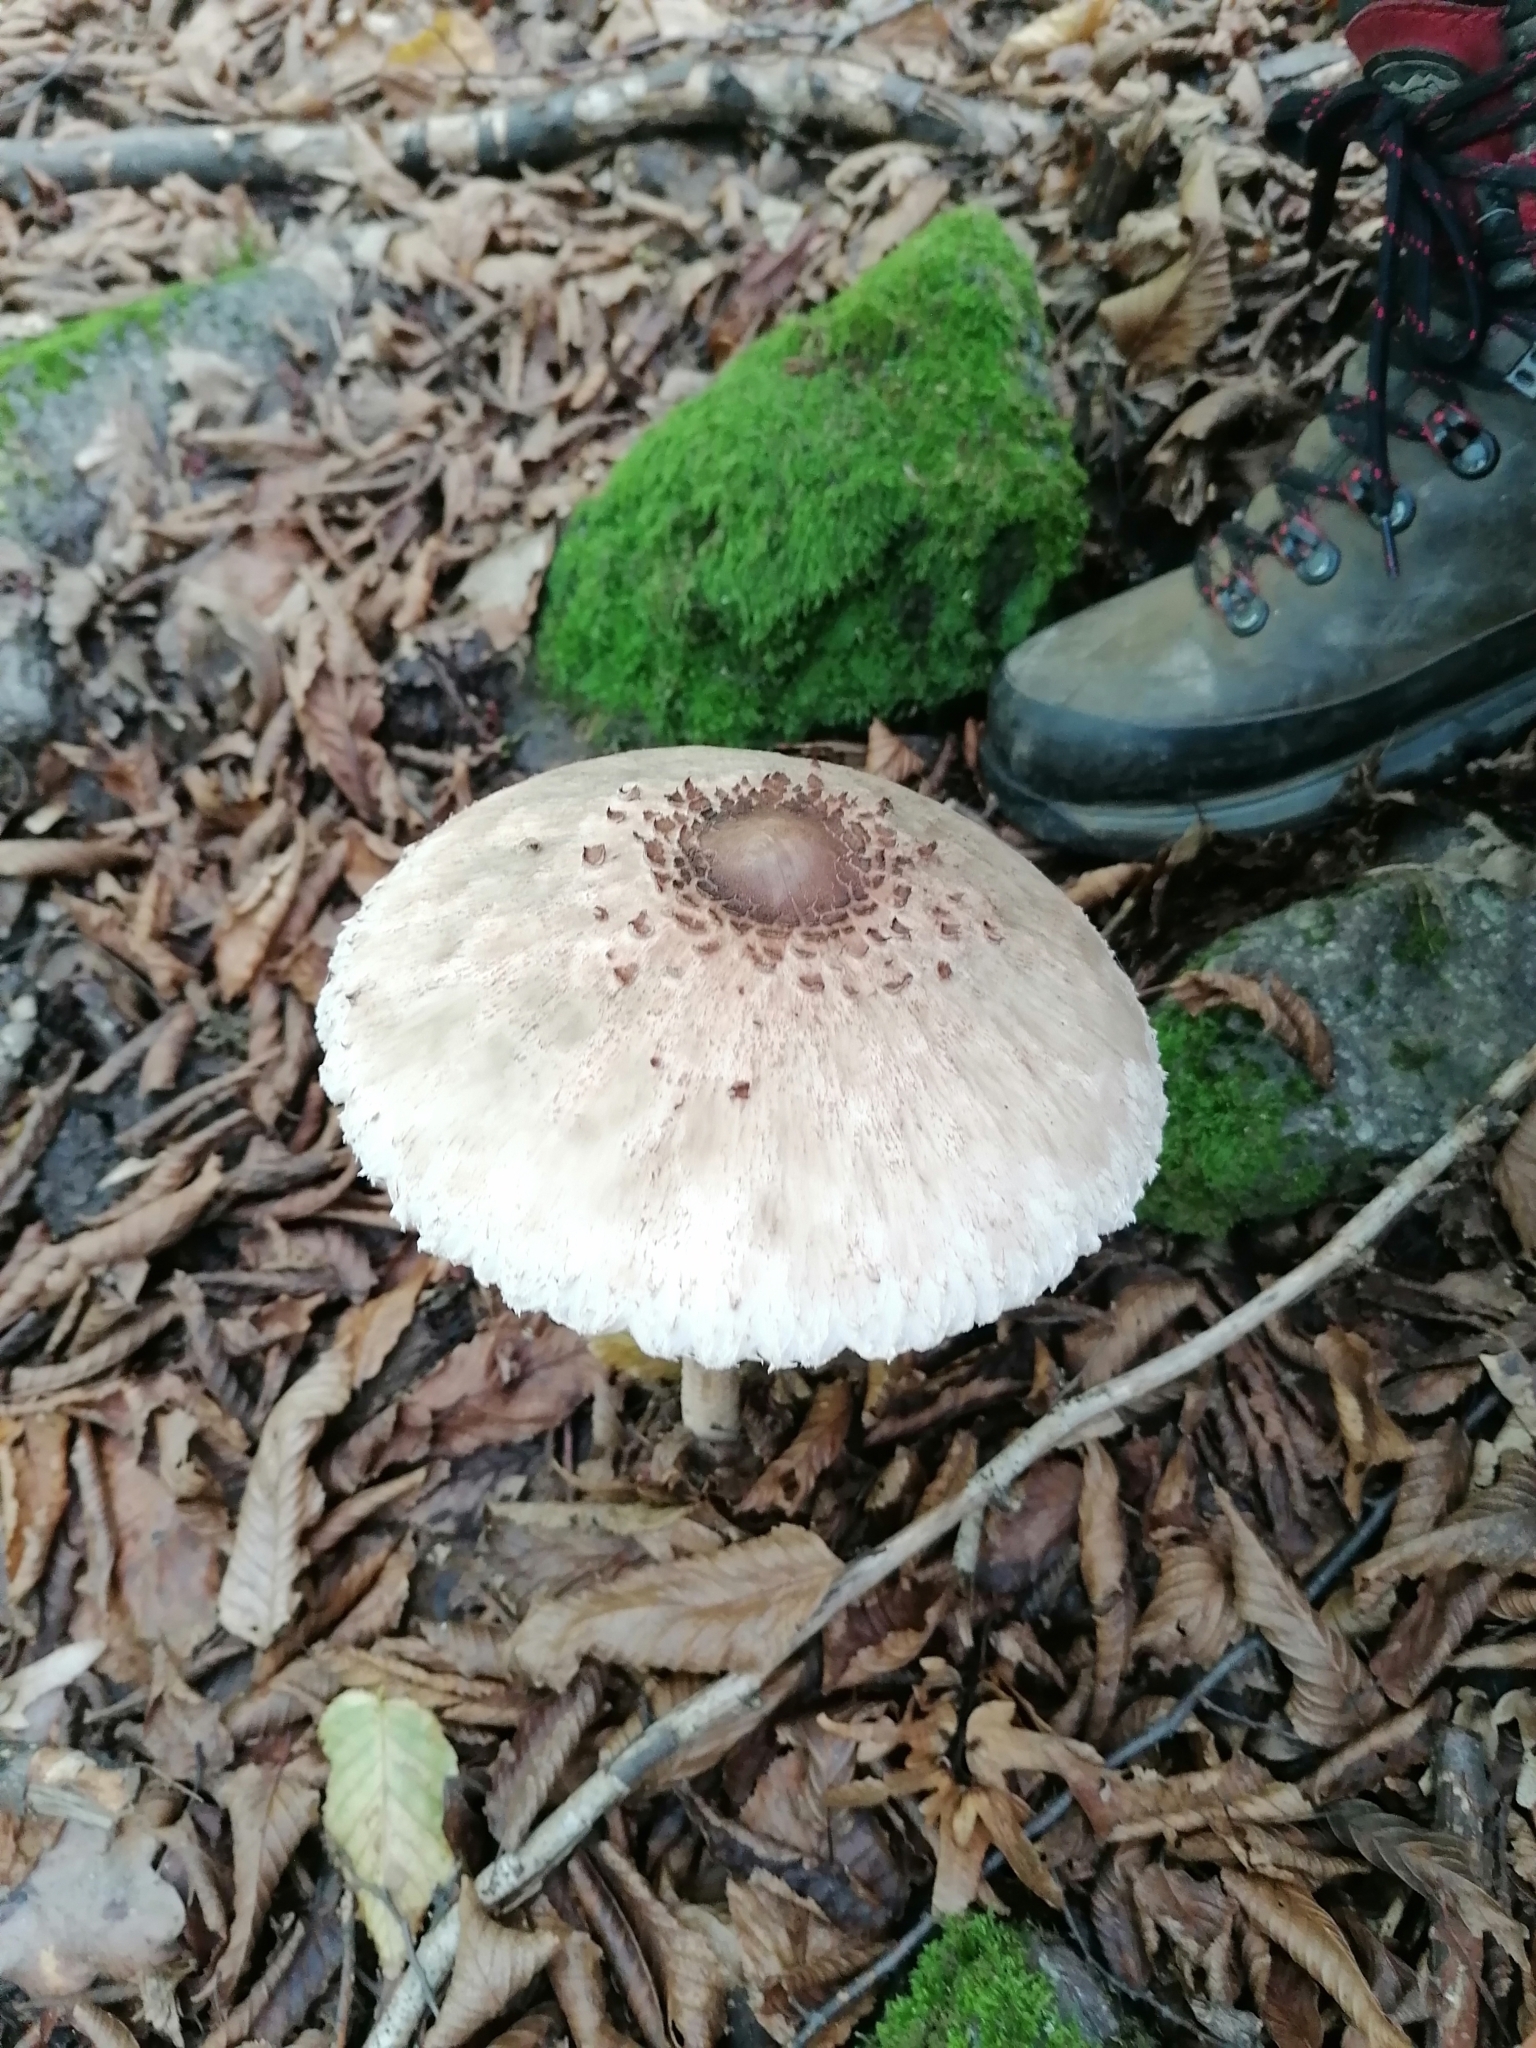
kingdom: Fungi
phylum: Basidiomycota
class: Agaricomycetes
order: Agaricales
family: Agaricaceae
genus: Macrolepiota
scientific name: Macrolepiota procera
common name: Parasol
